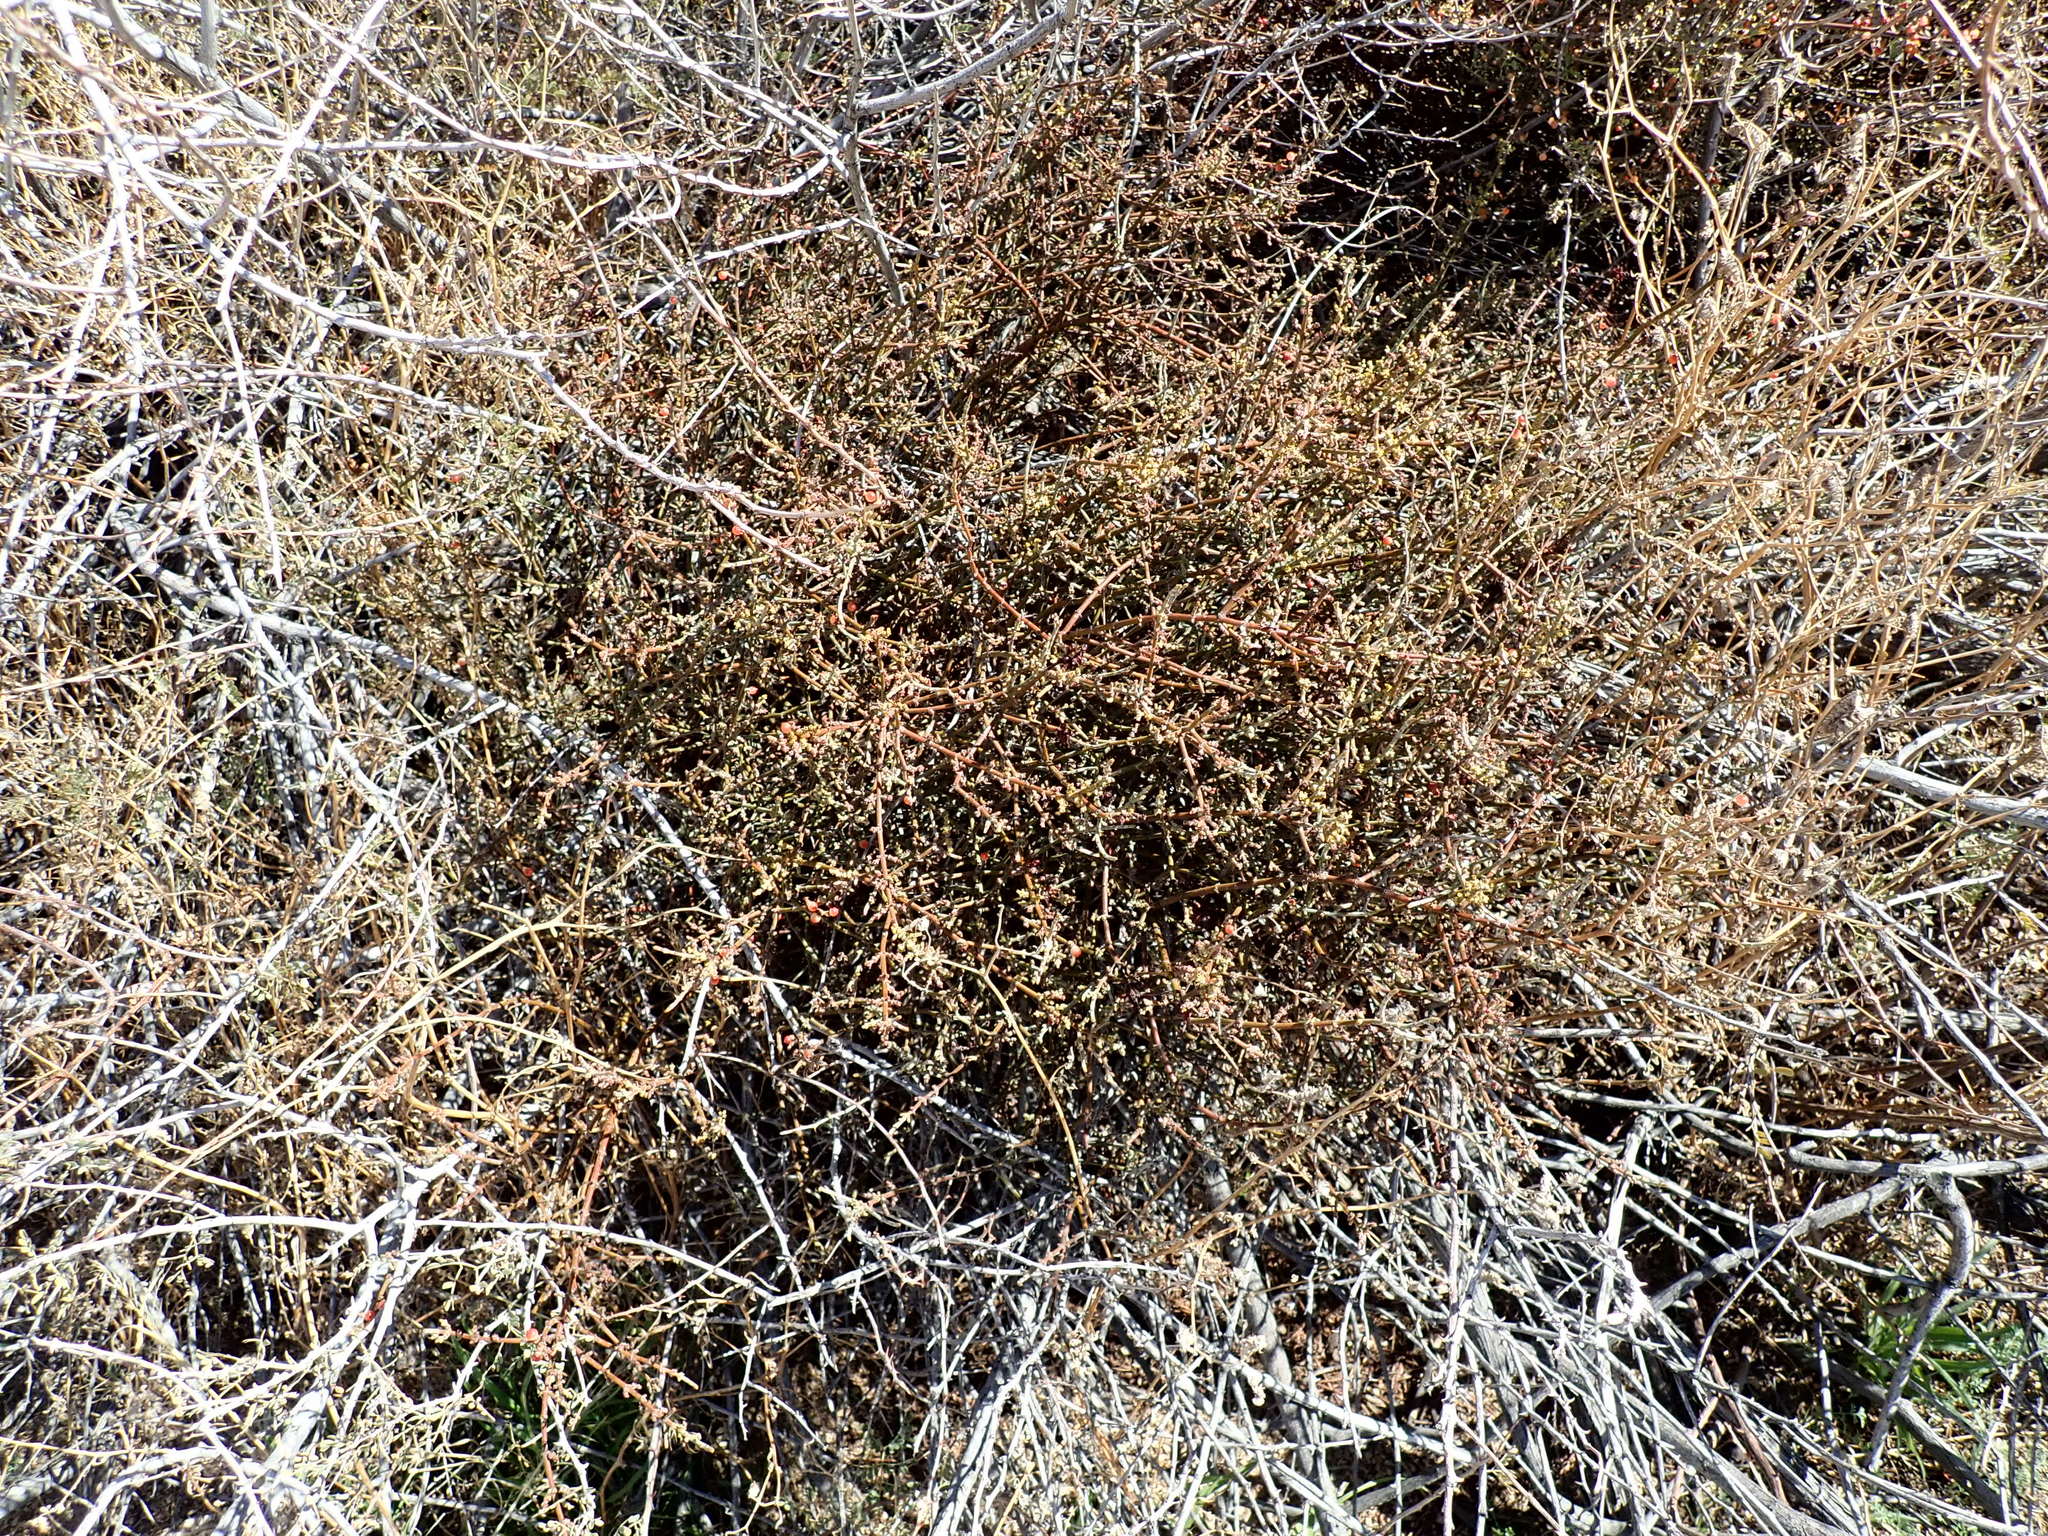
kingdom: Plantae
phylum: Tracheophyta
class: Magnoliopsida
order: Santalales
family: Viscaceae
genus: Phoradendron
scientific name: Phoradendron californicum
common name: Acacia mistletoe
